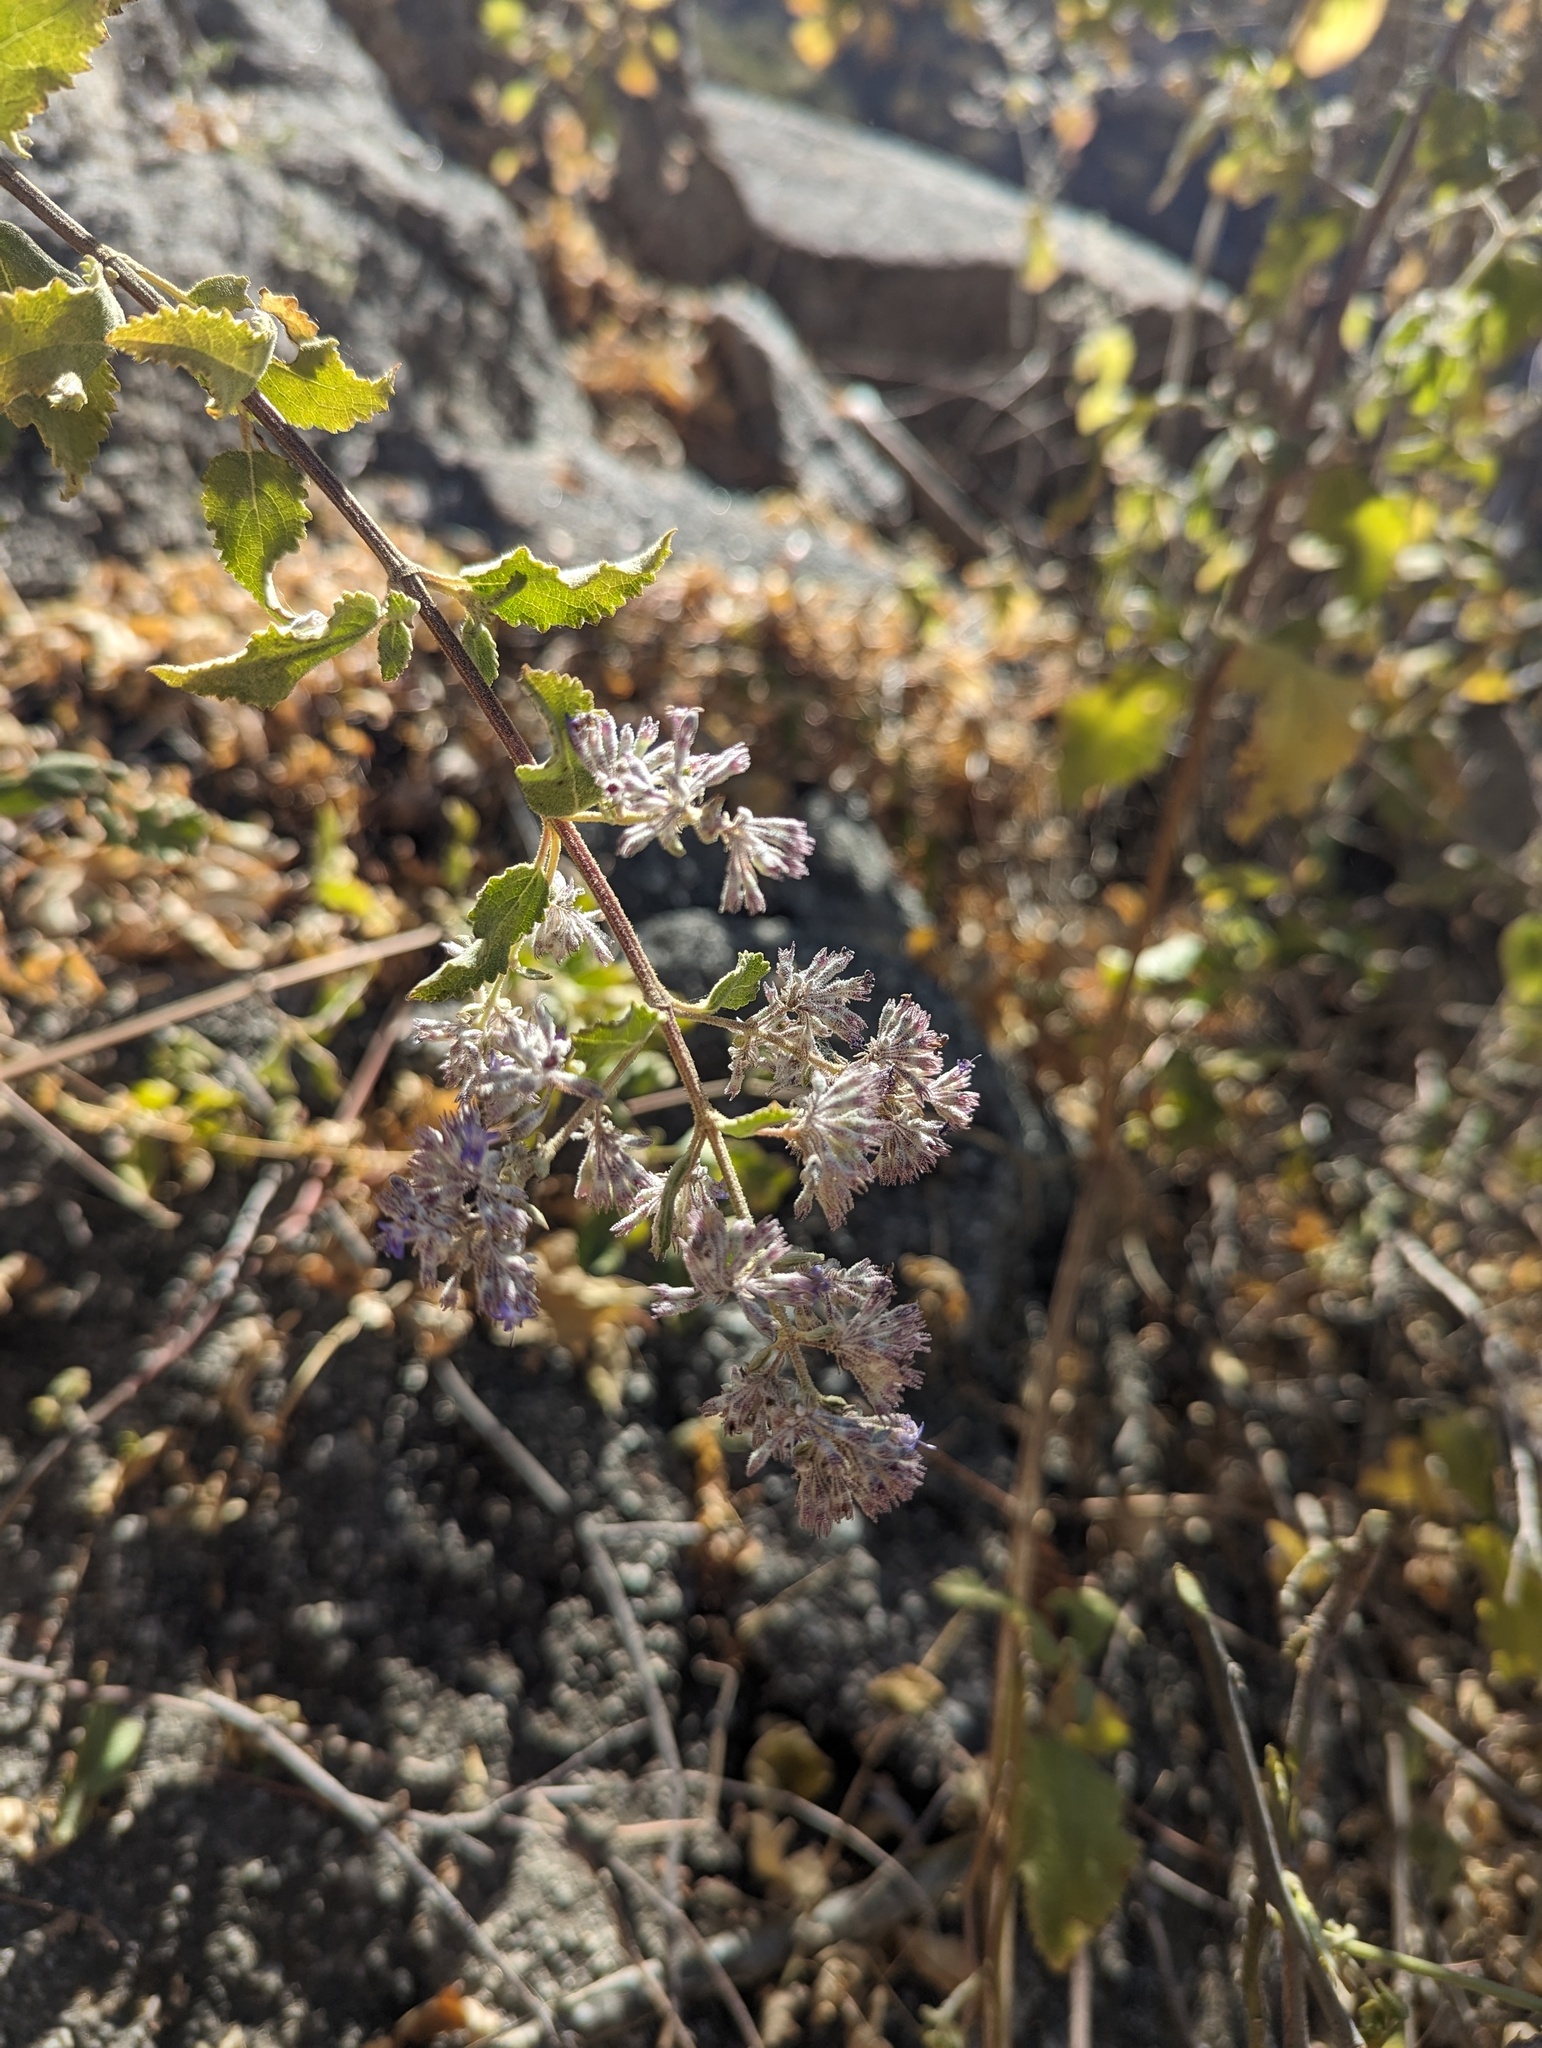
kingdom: Plantae
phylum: Tracheophyta
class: Magnoliopsida
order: Lamiales
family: Lamiaceae
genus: Condea
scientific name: Condea decipiens
